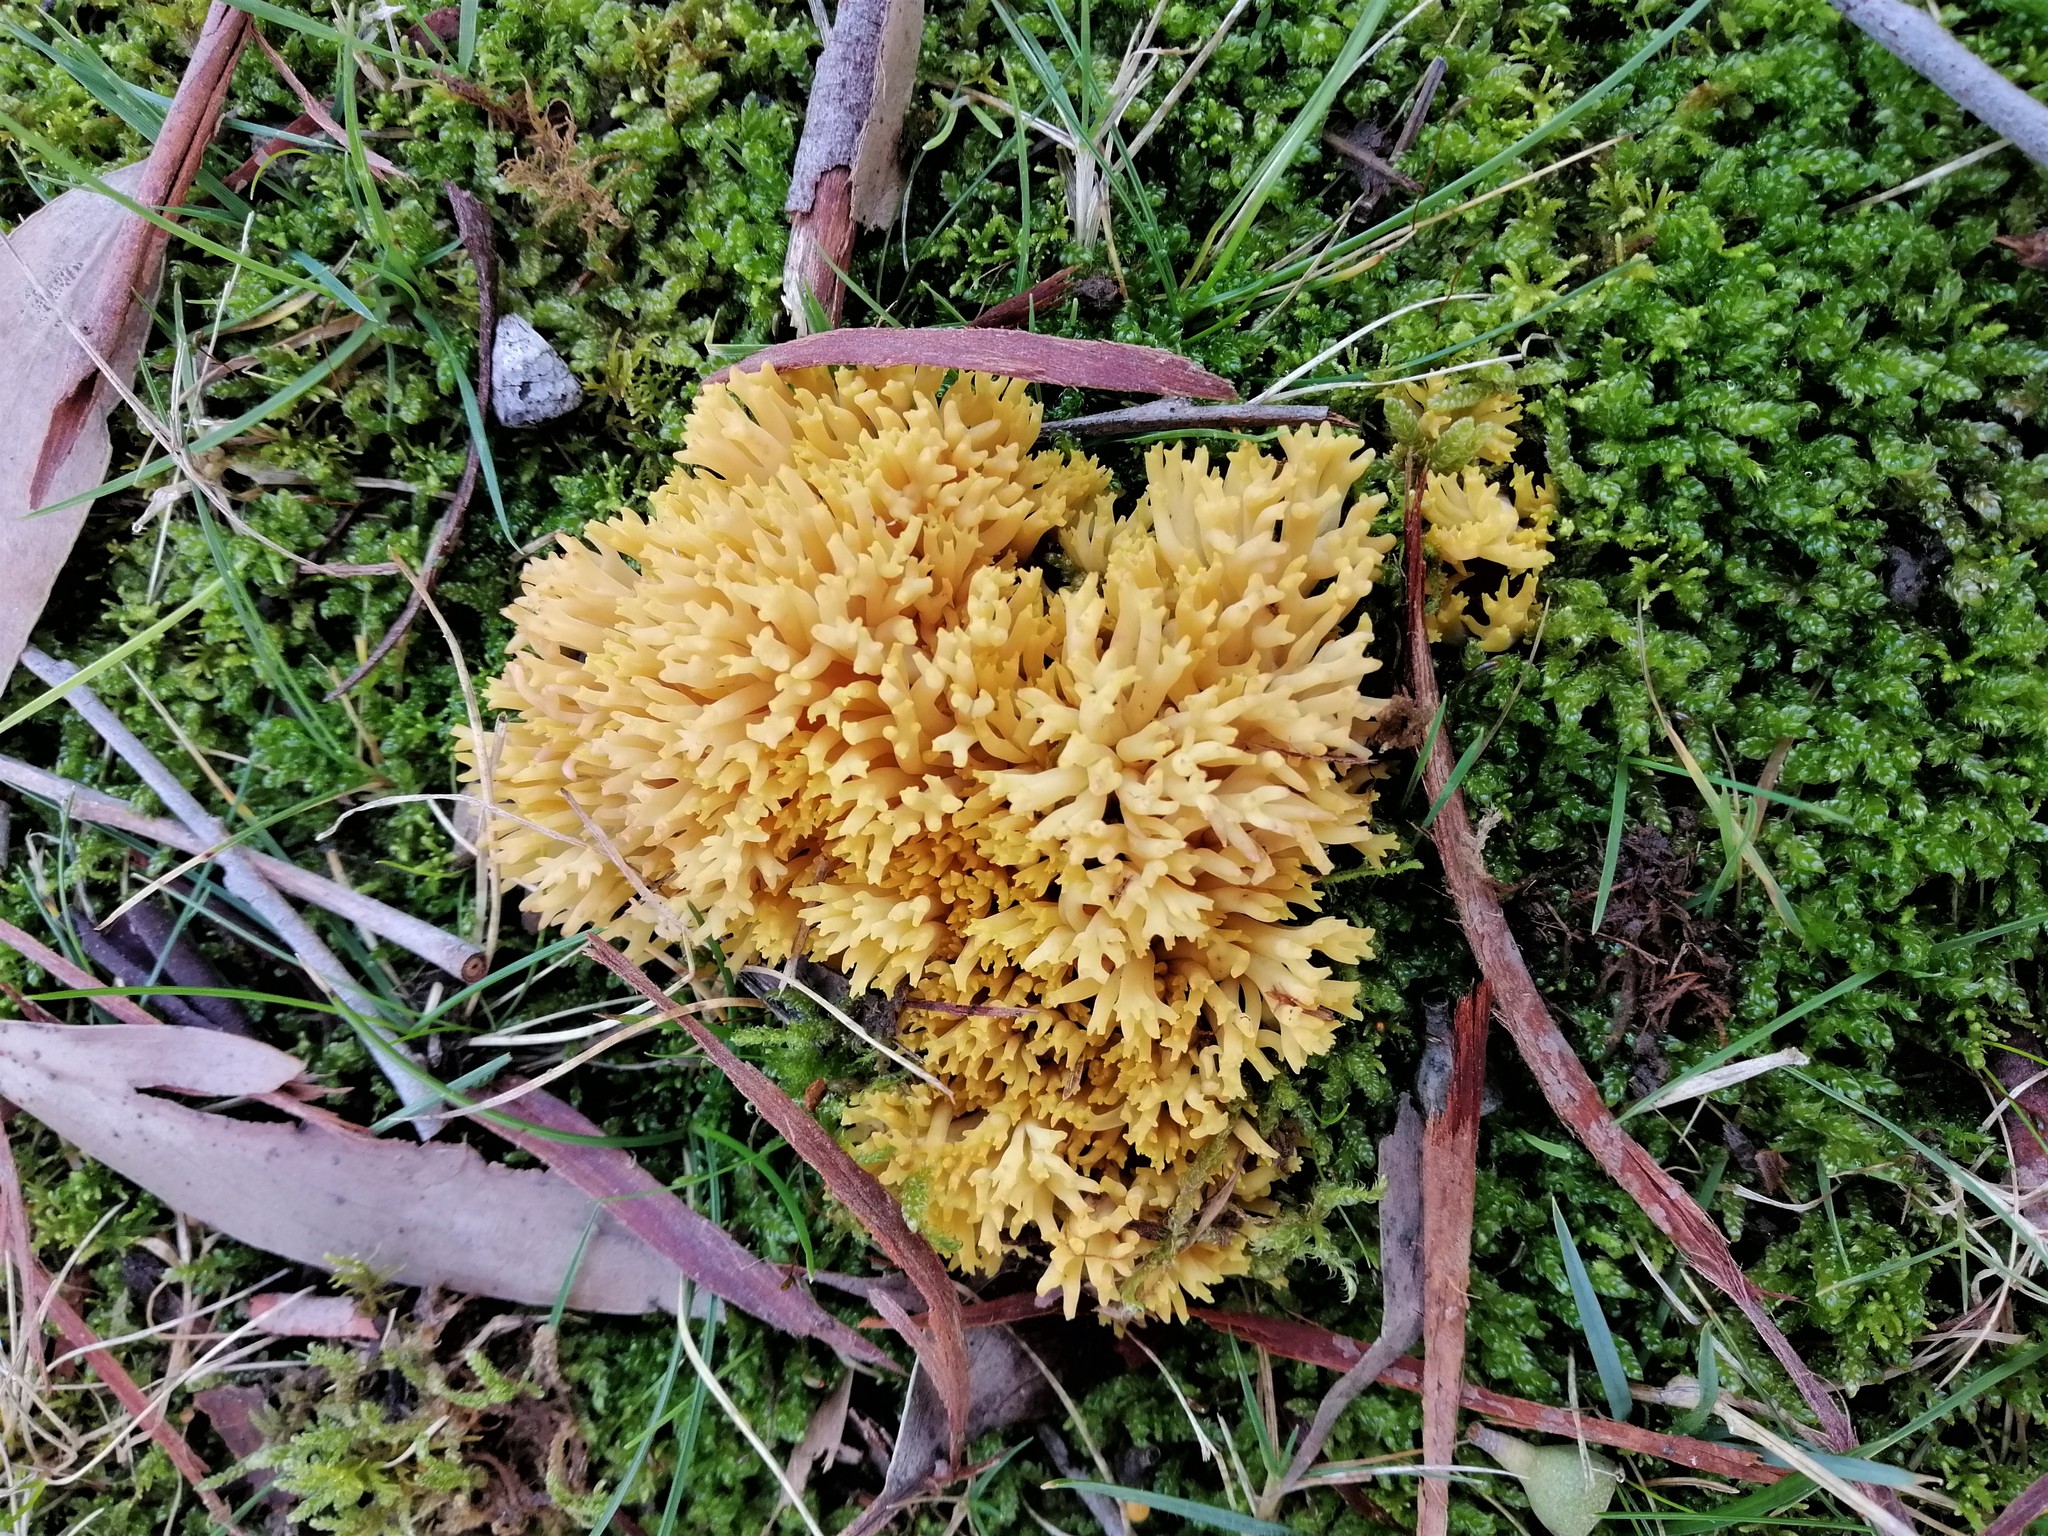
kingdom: Fungi
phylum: Basidiomycota
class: Agaricomycetes
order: Gomphales
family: Gomphaceae
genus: Ramaria
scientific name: Ramaria lorithamnus
